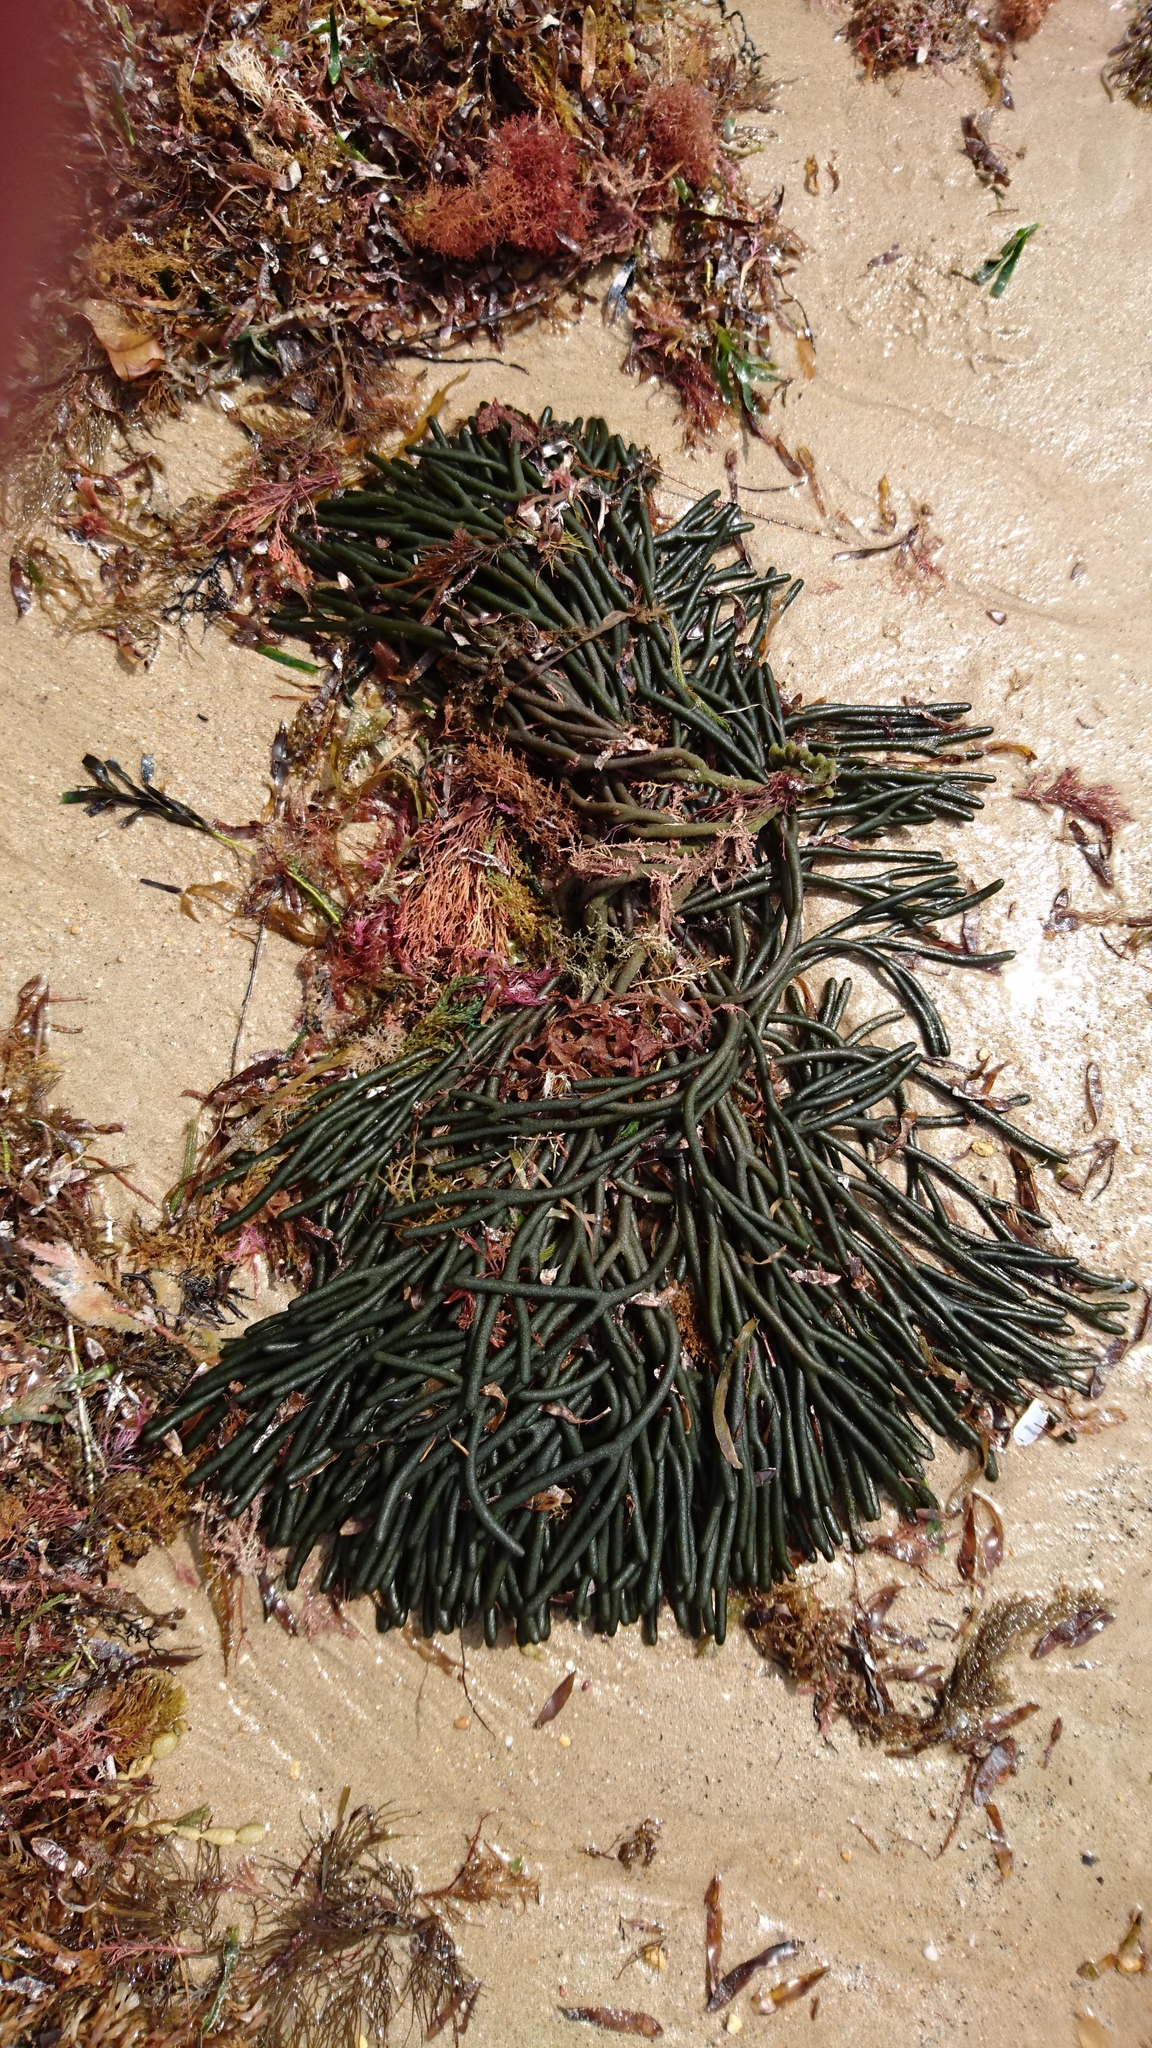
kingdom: Plantae
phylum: Chlorophyta
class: Ulvophyceae
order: Bryopsidales
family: Codiaceae
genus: Codium
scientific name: Codium fragile
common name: Dead man's fingers
